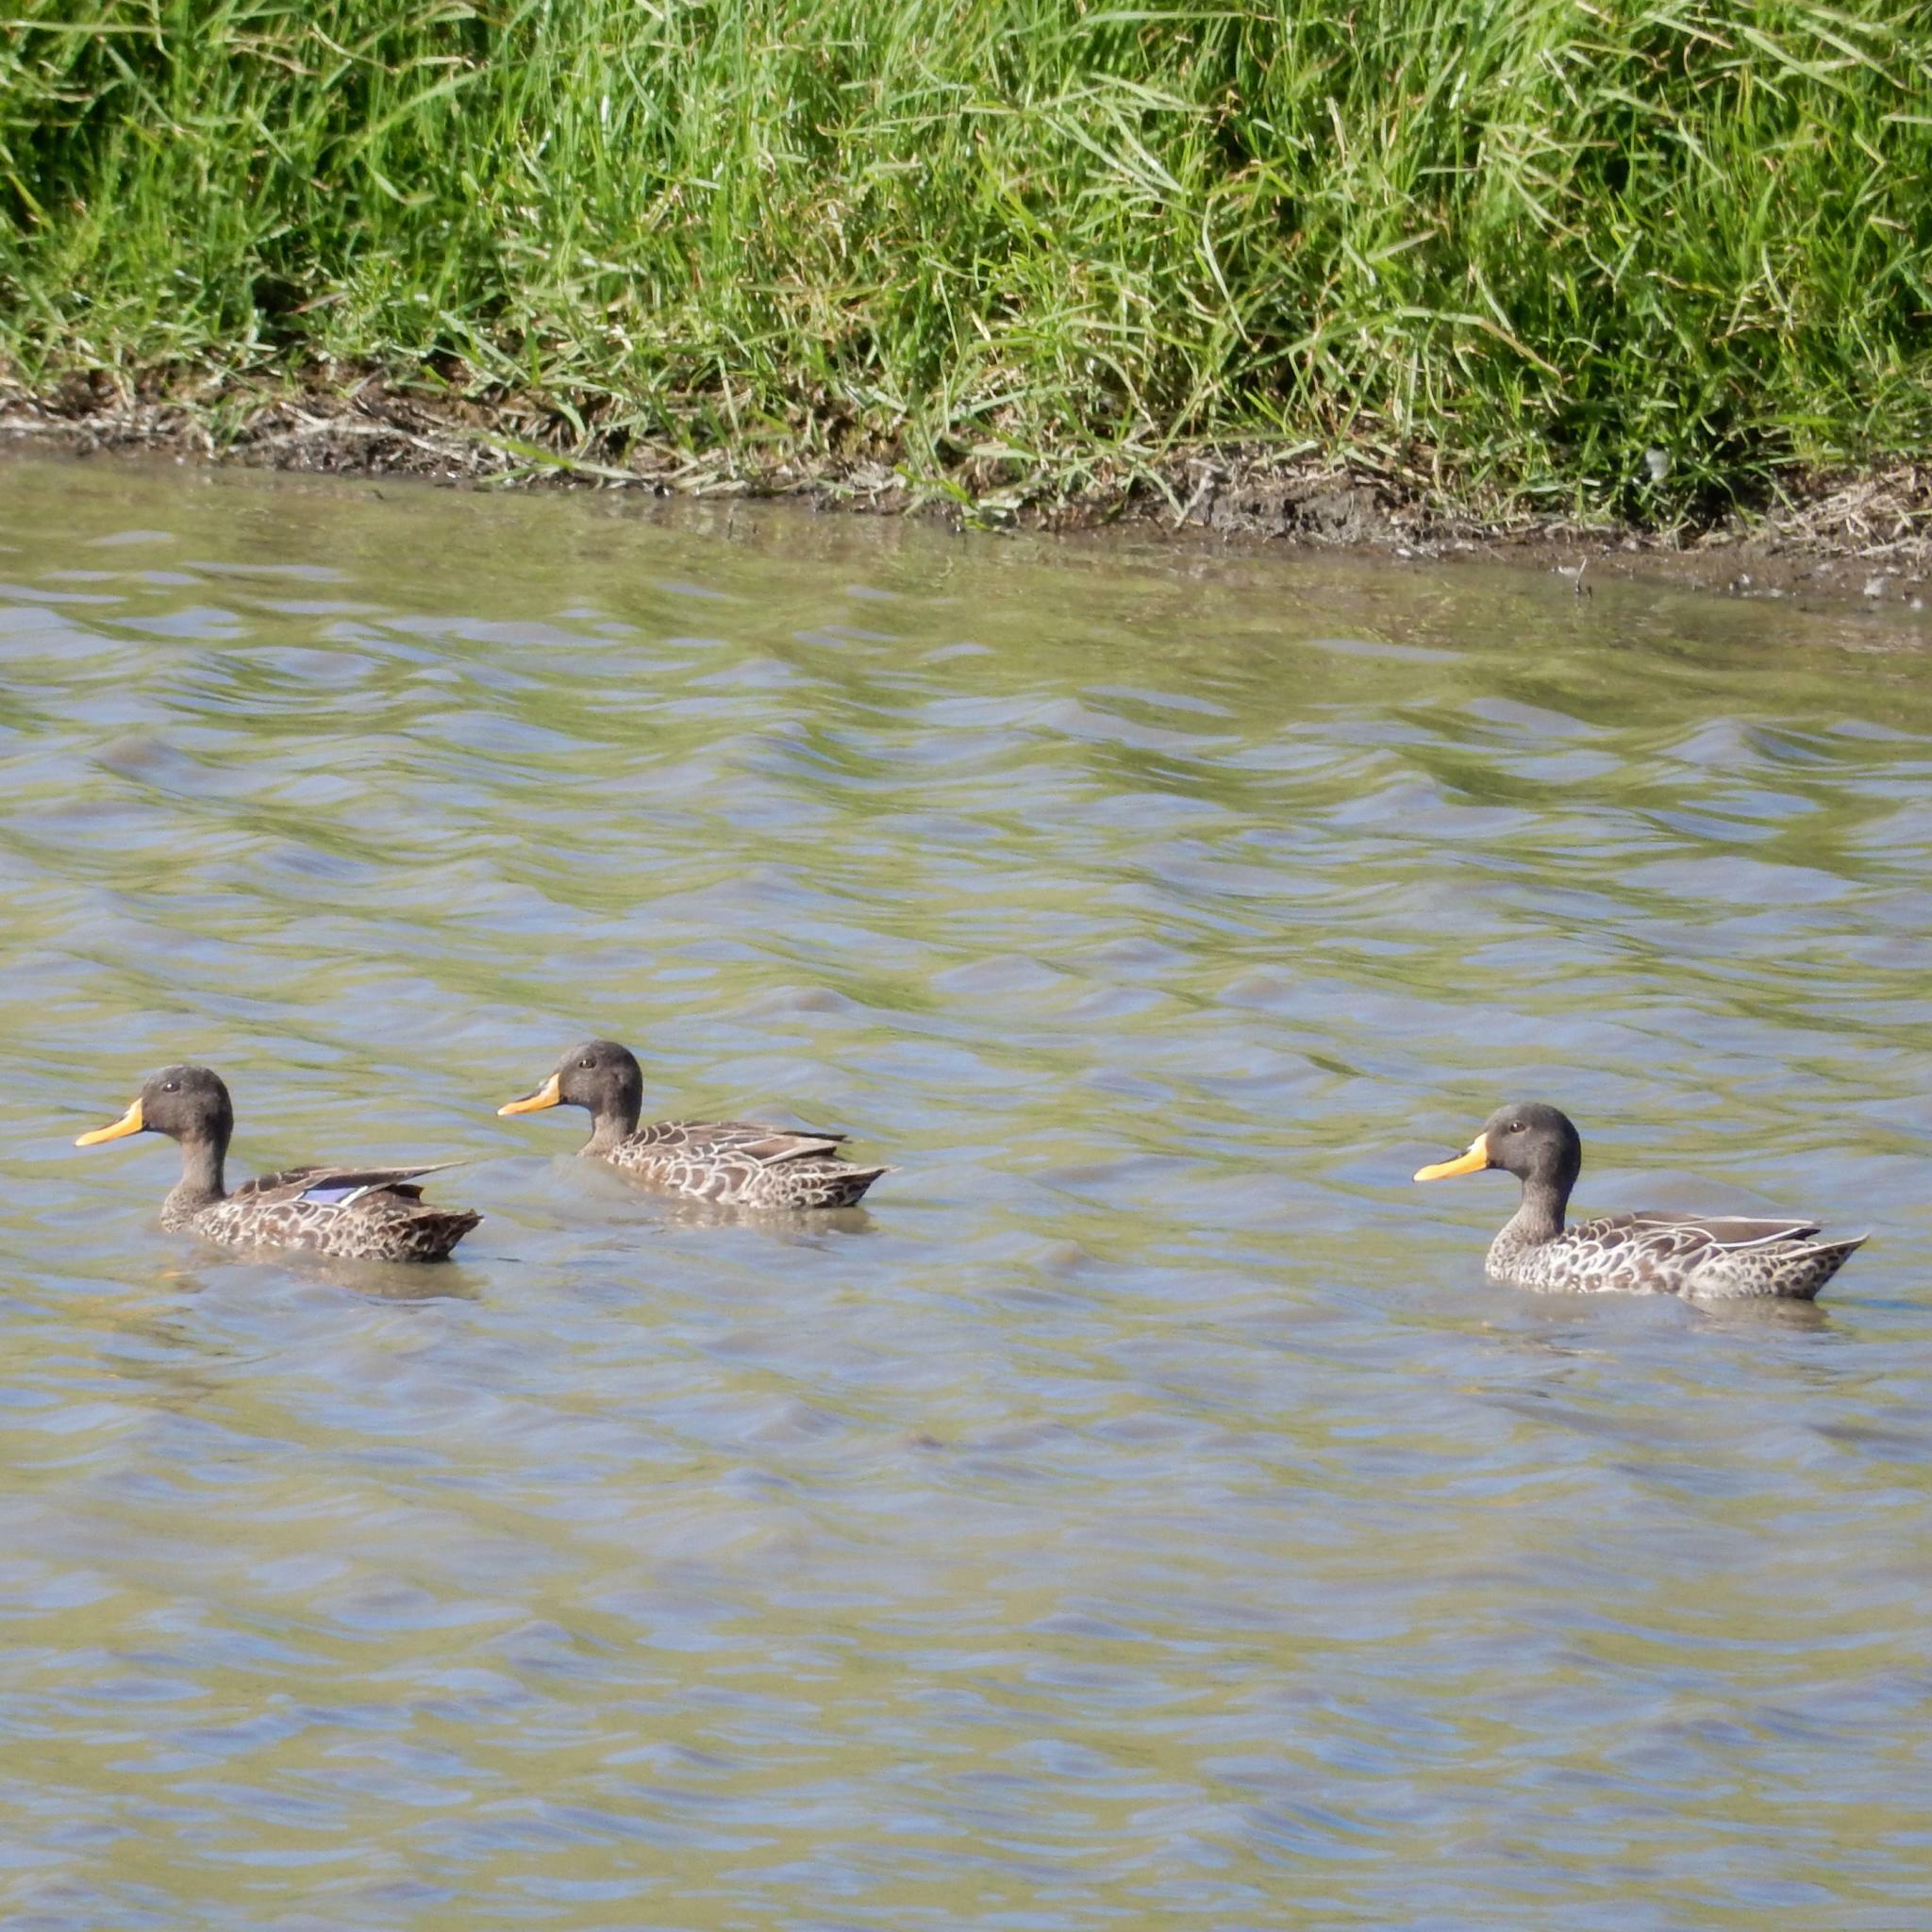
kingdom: Animalia
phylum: Chordata
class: Aves
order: Anseriformes
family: Anatidae
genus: Anas
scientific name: Anas undulata
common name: Yellow-billed duck
